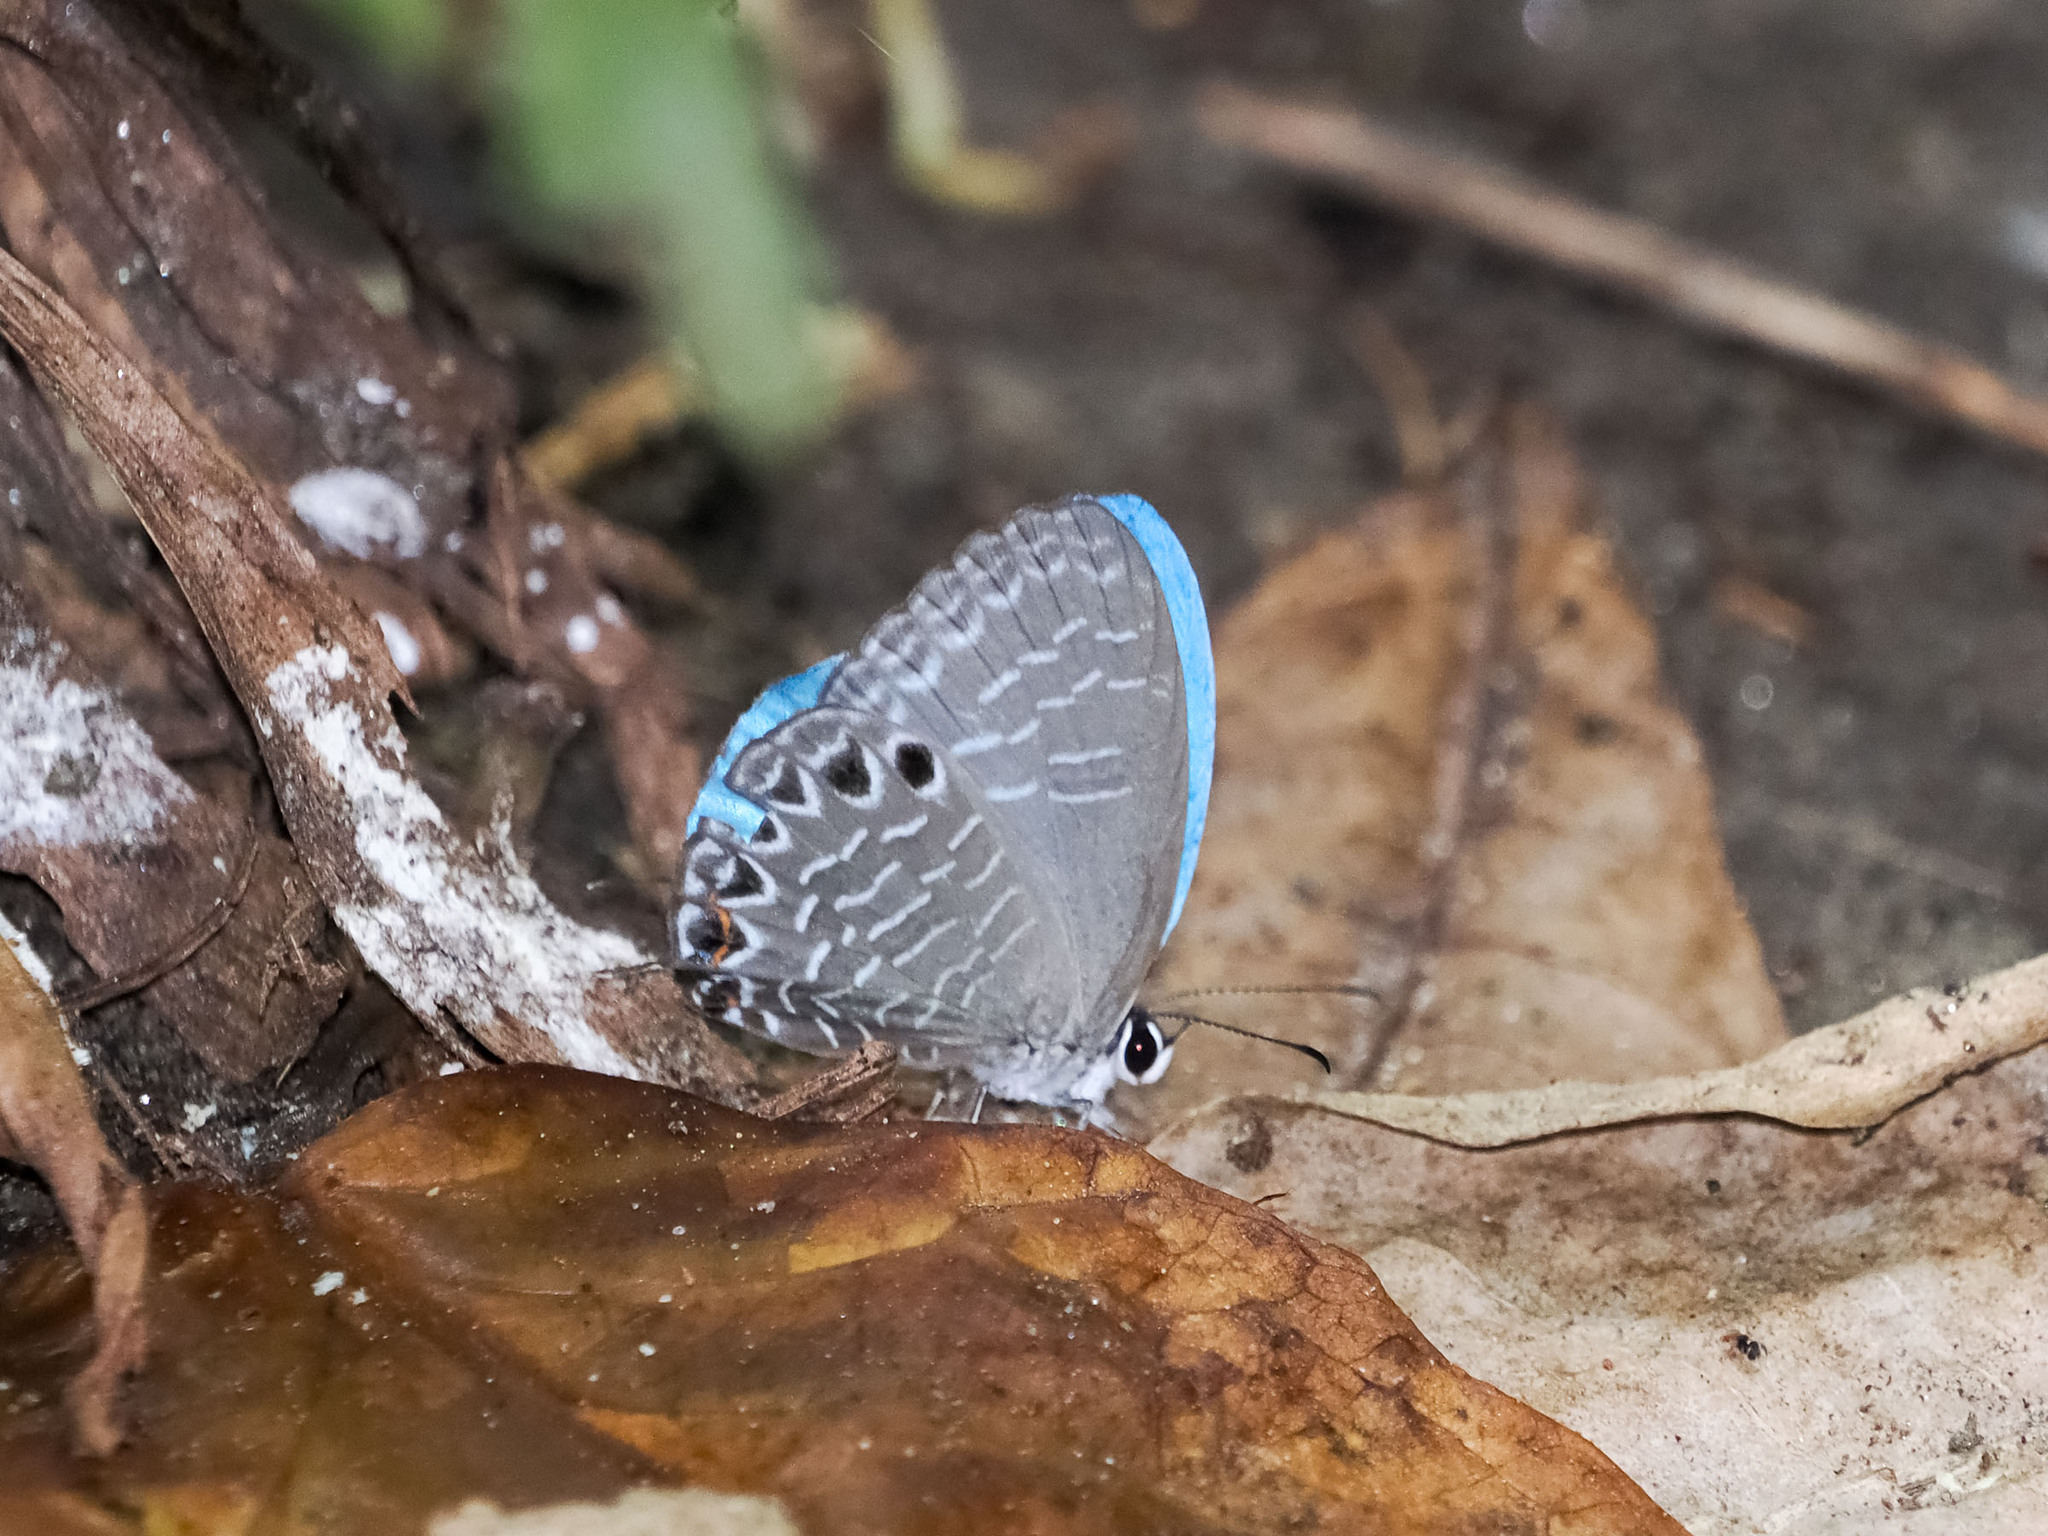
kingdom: Animalia
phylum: Arthropoda
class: Insecta
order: Lepidoptera
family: Lycaenidae
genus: Jamides
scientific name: Jamides cyta
